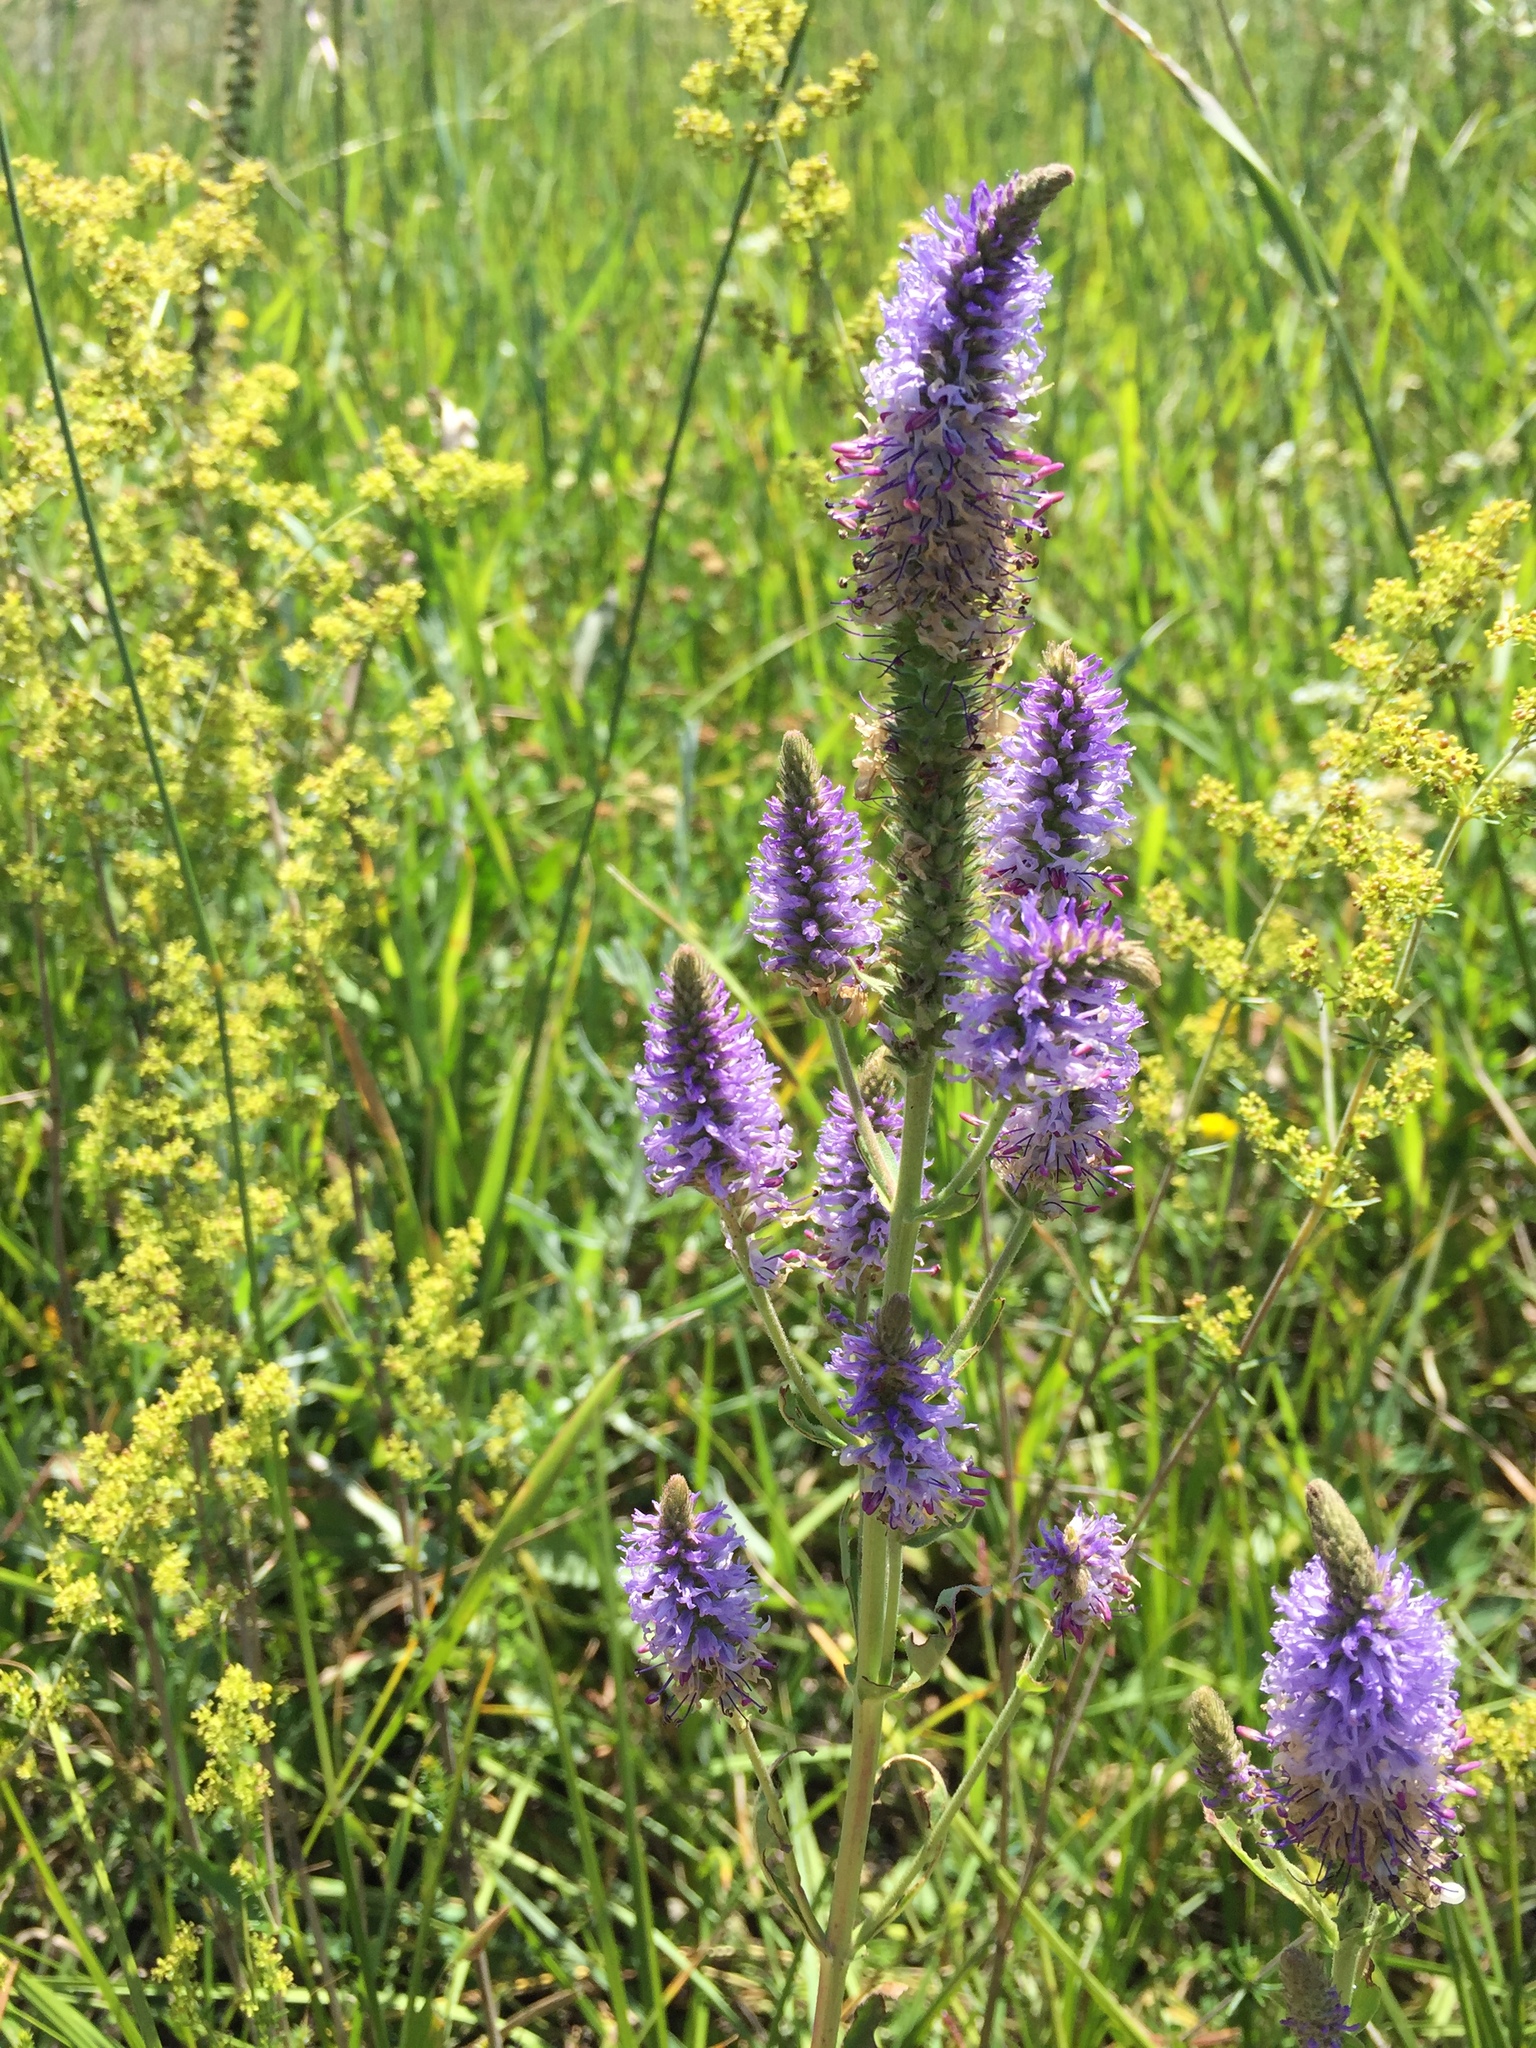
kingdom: Plantae
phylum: Tracheophyta
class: Magnoliopsida
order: Lamiales
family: Plantaginaceae
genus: Veronica
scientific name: Veronica orchidea
